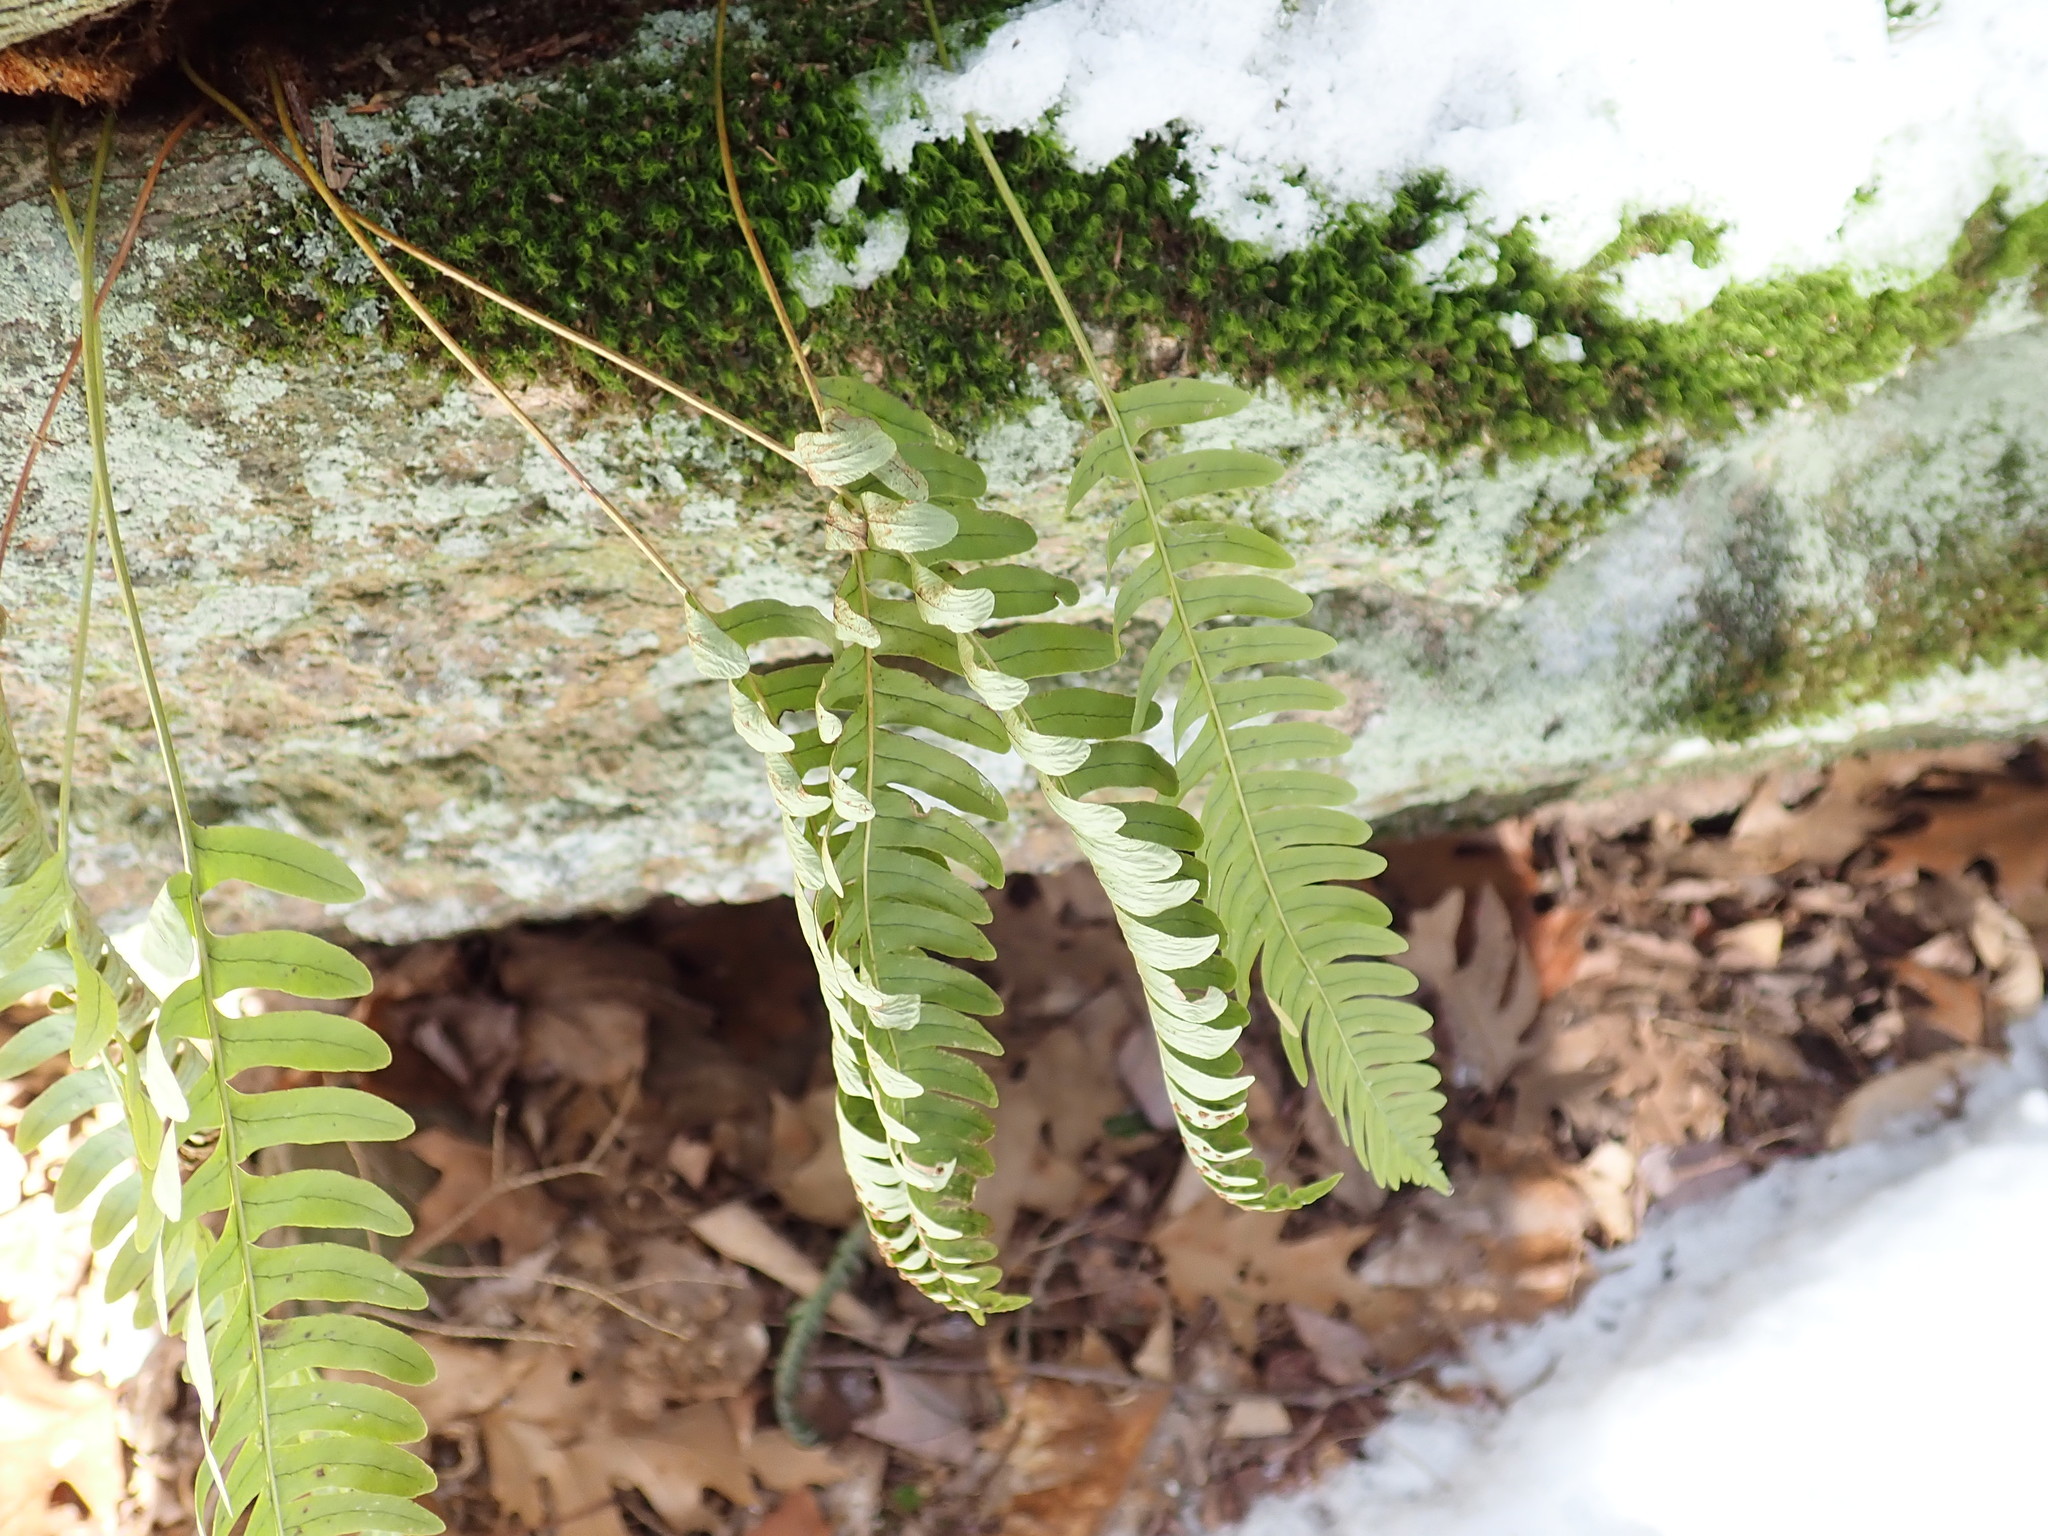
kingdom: Plantae
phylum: Tracheophyta
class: Polypodiopsida
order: Polypodiales
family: Polypodiaceae
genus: Polypodium
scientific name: Polypodium
